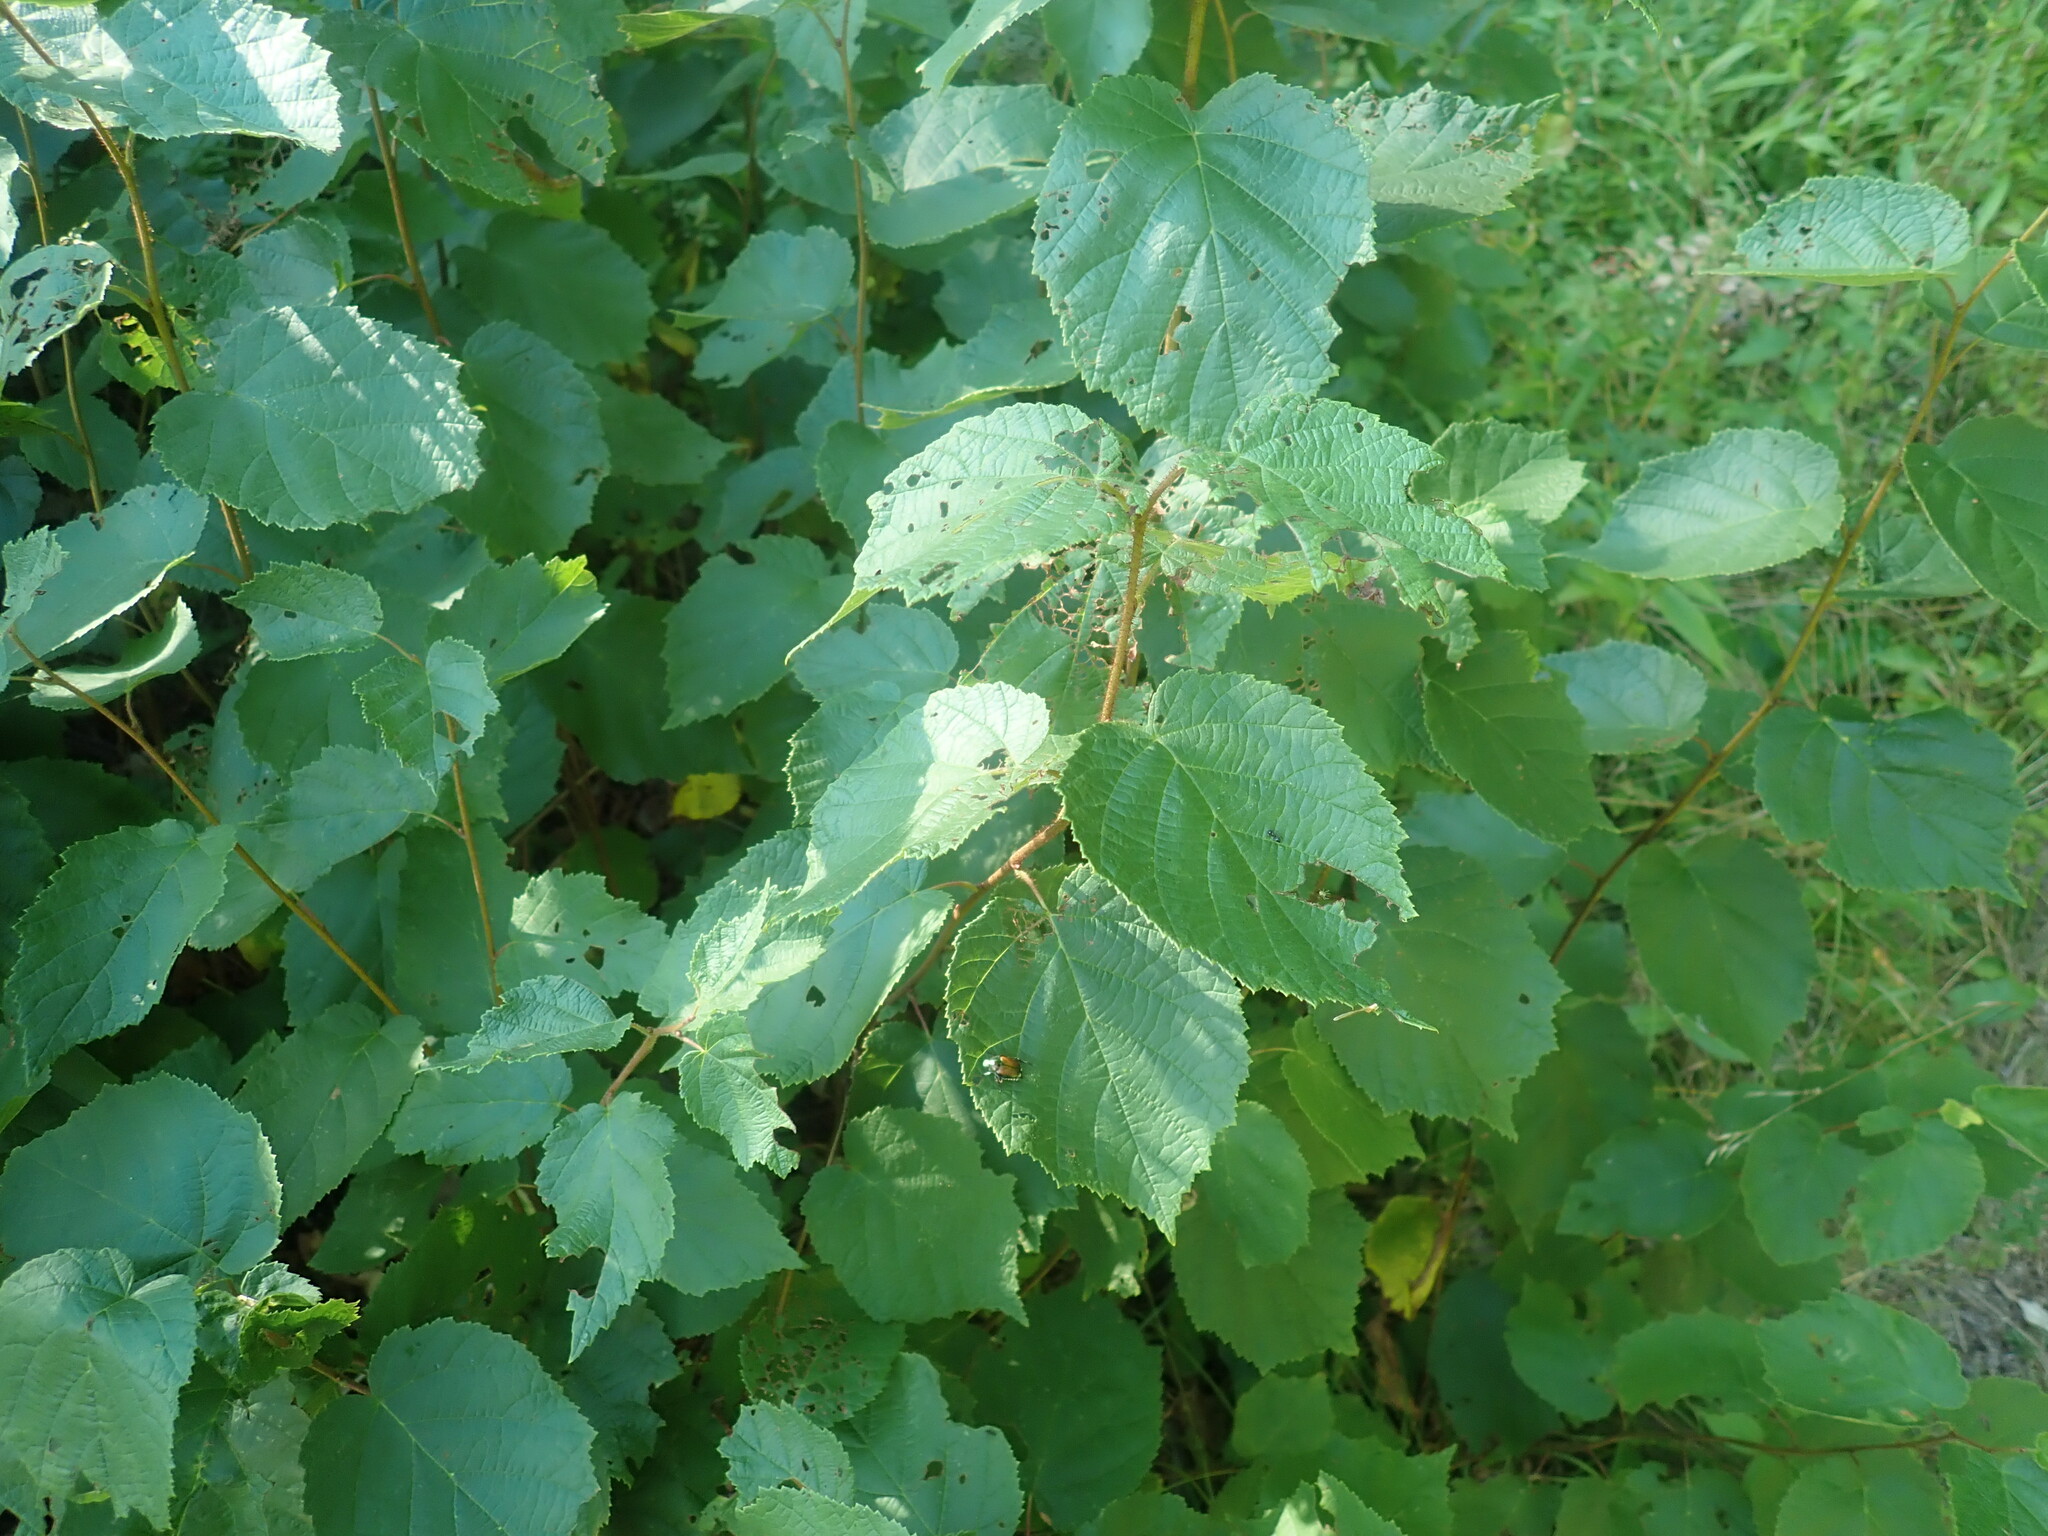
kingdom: Plantae
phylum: Tracheophyta
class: Magnoliopsida
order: Fagales
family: Betulaceae
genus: Corylus
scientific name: Corylus americana
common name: American hazel
